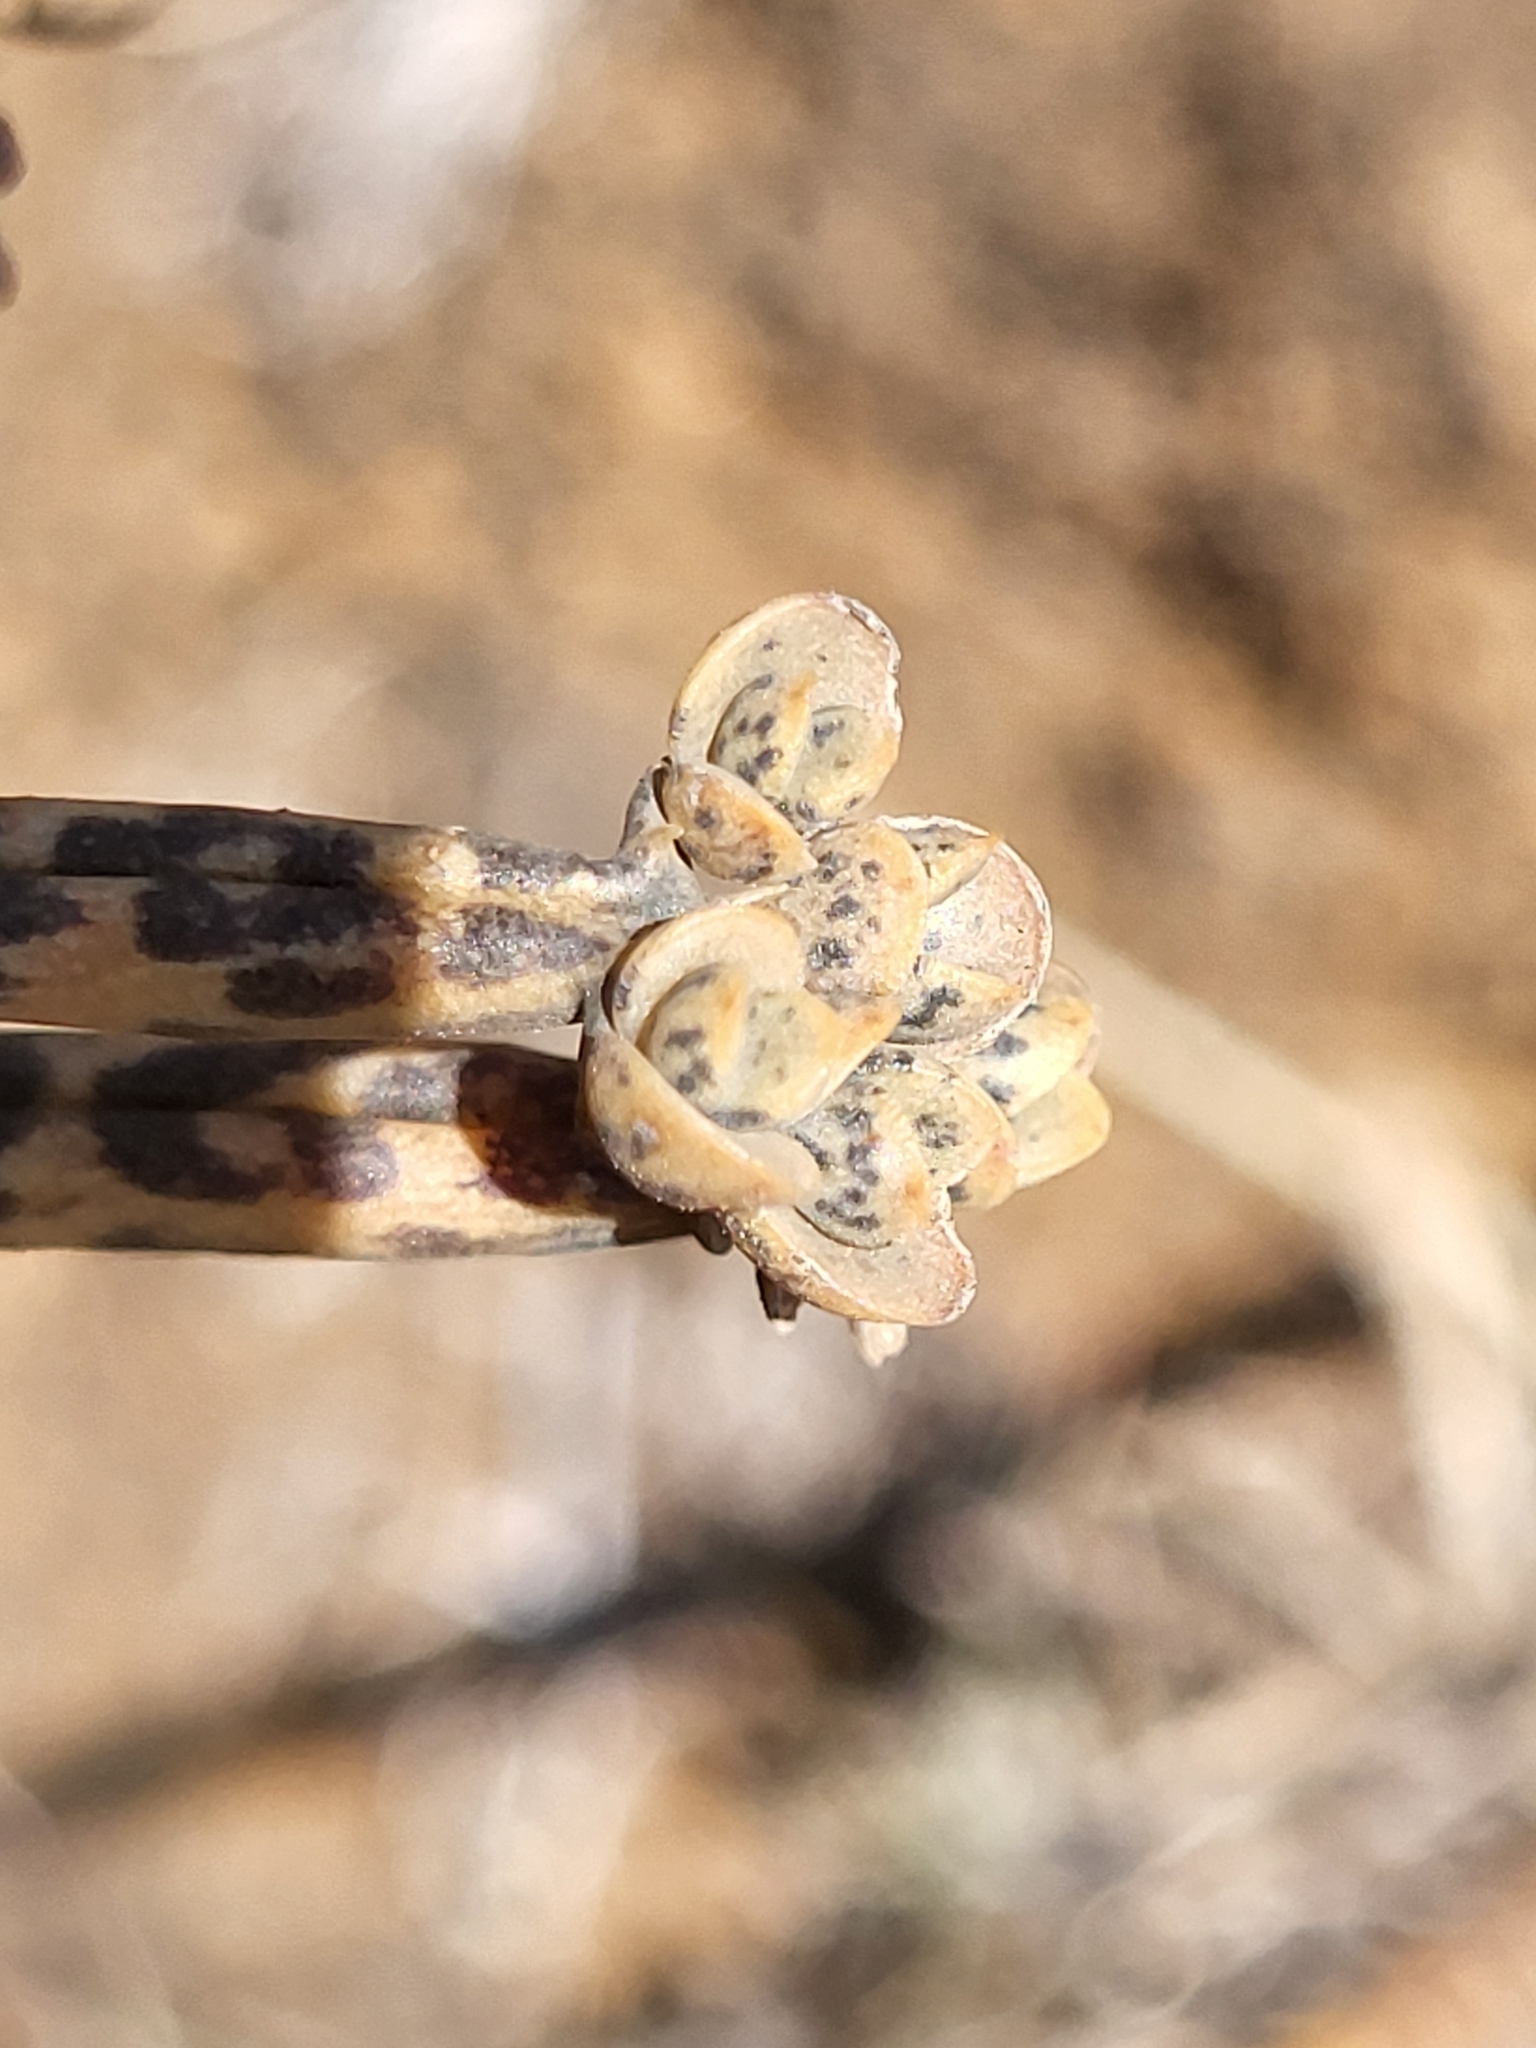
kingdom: Plantae
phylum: Tracheophyta
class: Magnoliopsida
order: Saxifragales
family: Crassulaceae
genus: Kalanchoe
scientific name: Kalanchoe delagoensis
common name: Chandelier plant
